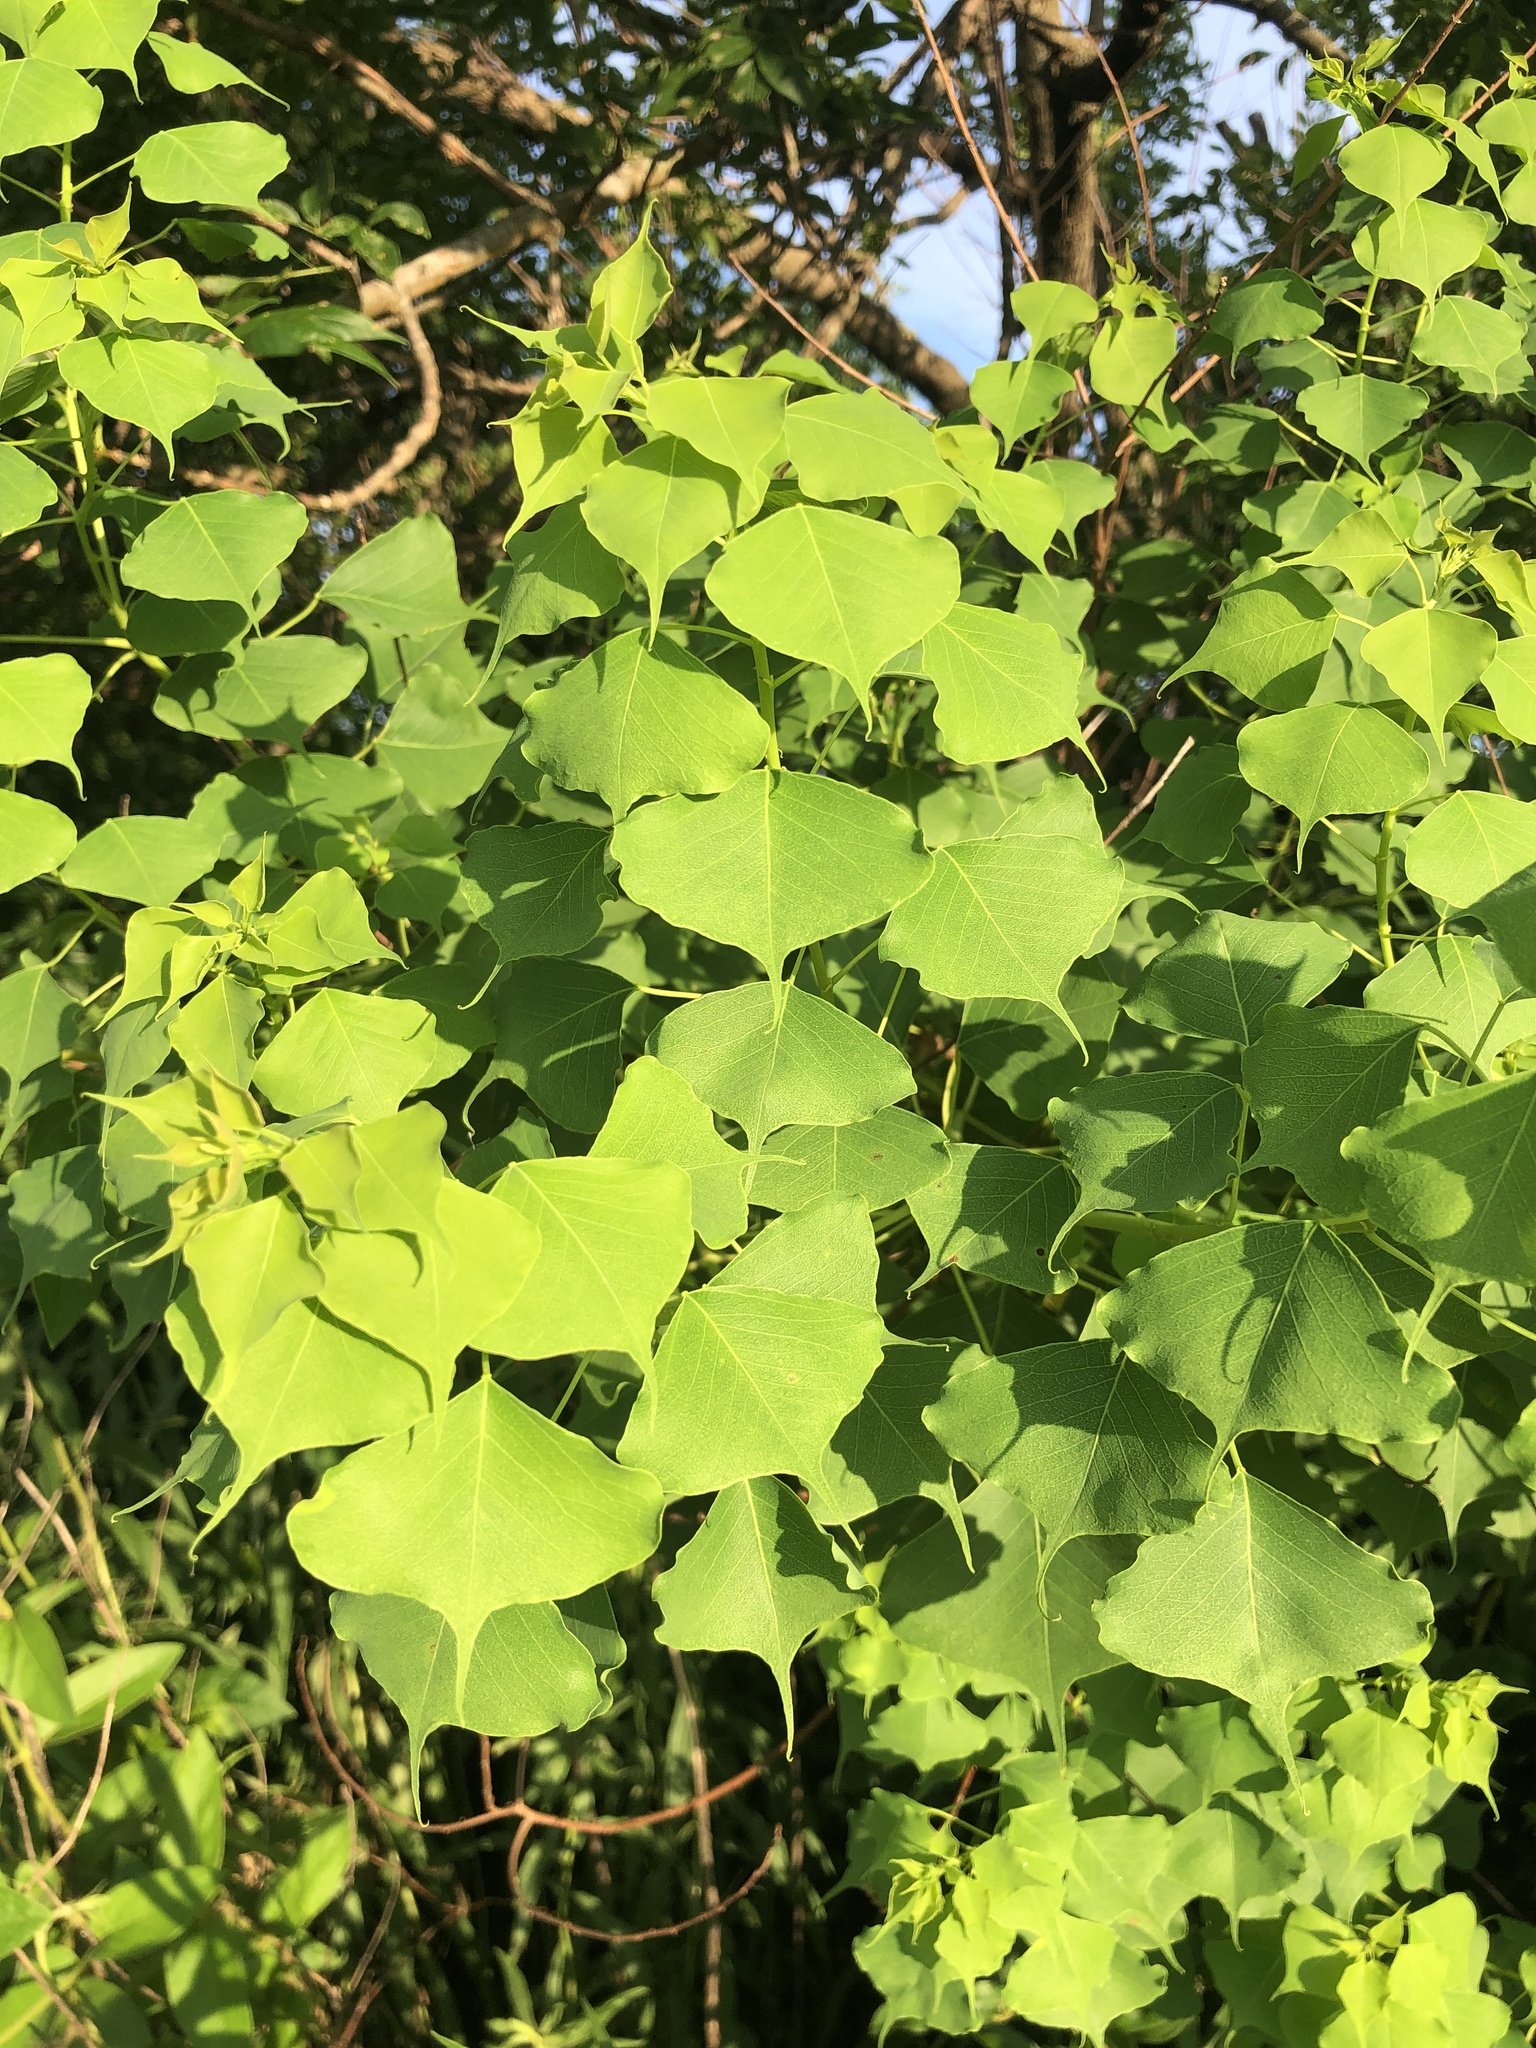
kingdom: Plantae
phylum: Tracheophyta
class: Magnoliopsida
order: Malpighiales
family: Euphorbiaceae
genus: Triadica
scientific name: Triadica sebifera
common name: Chinese tallow
